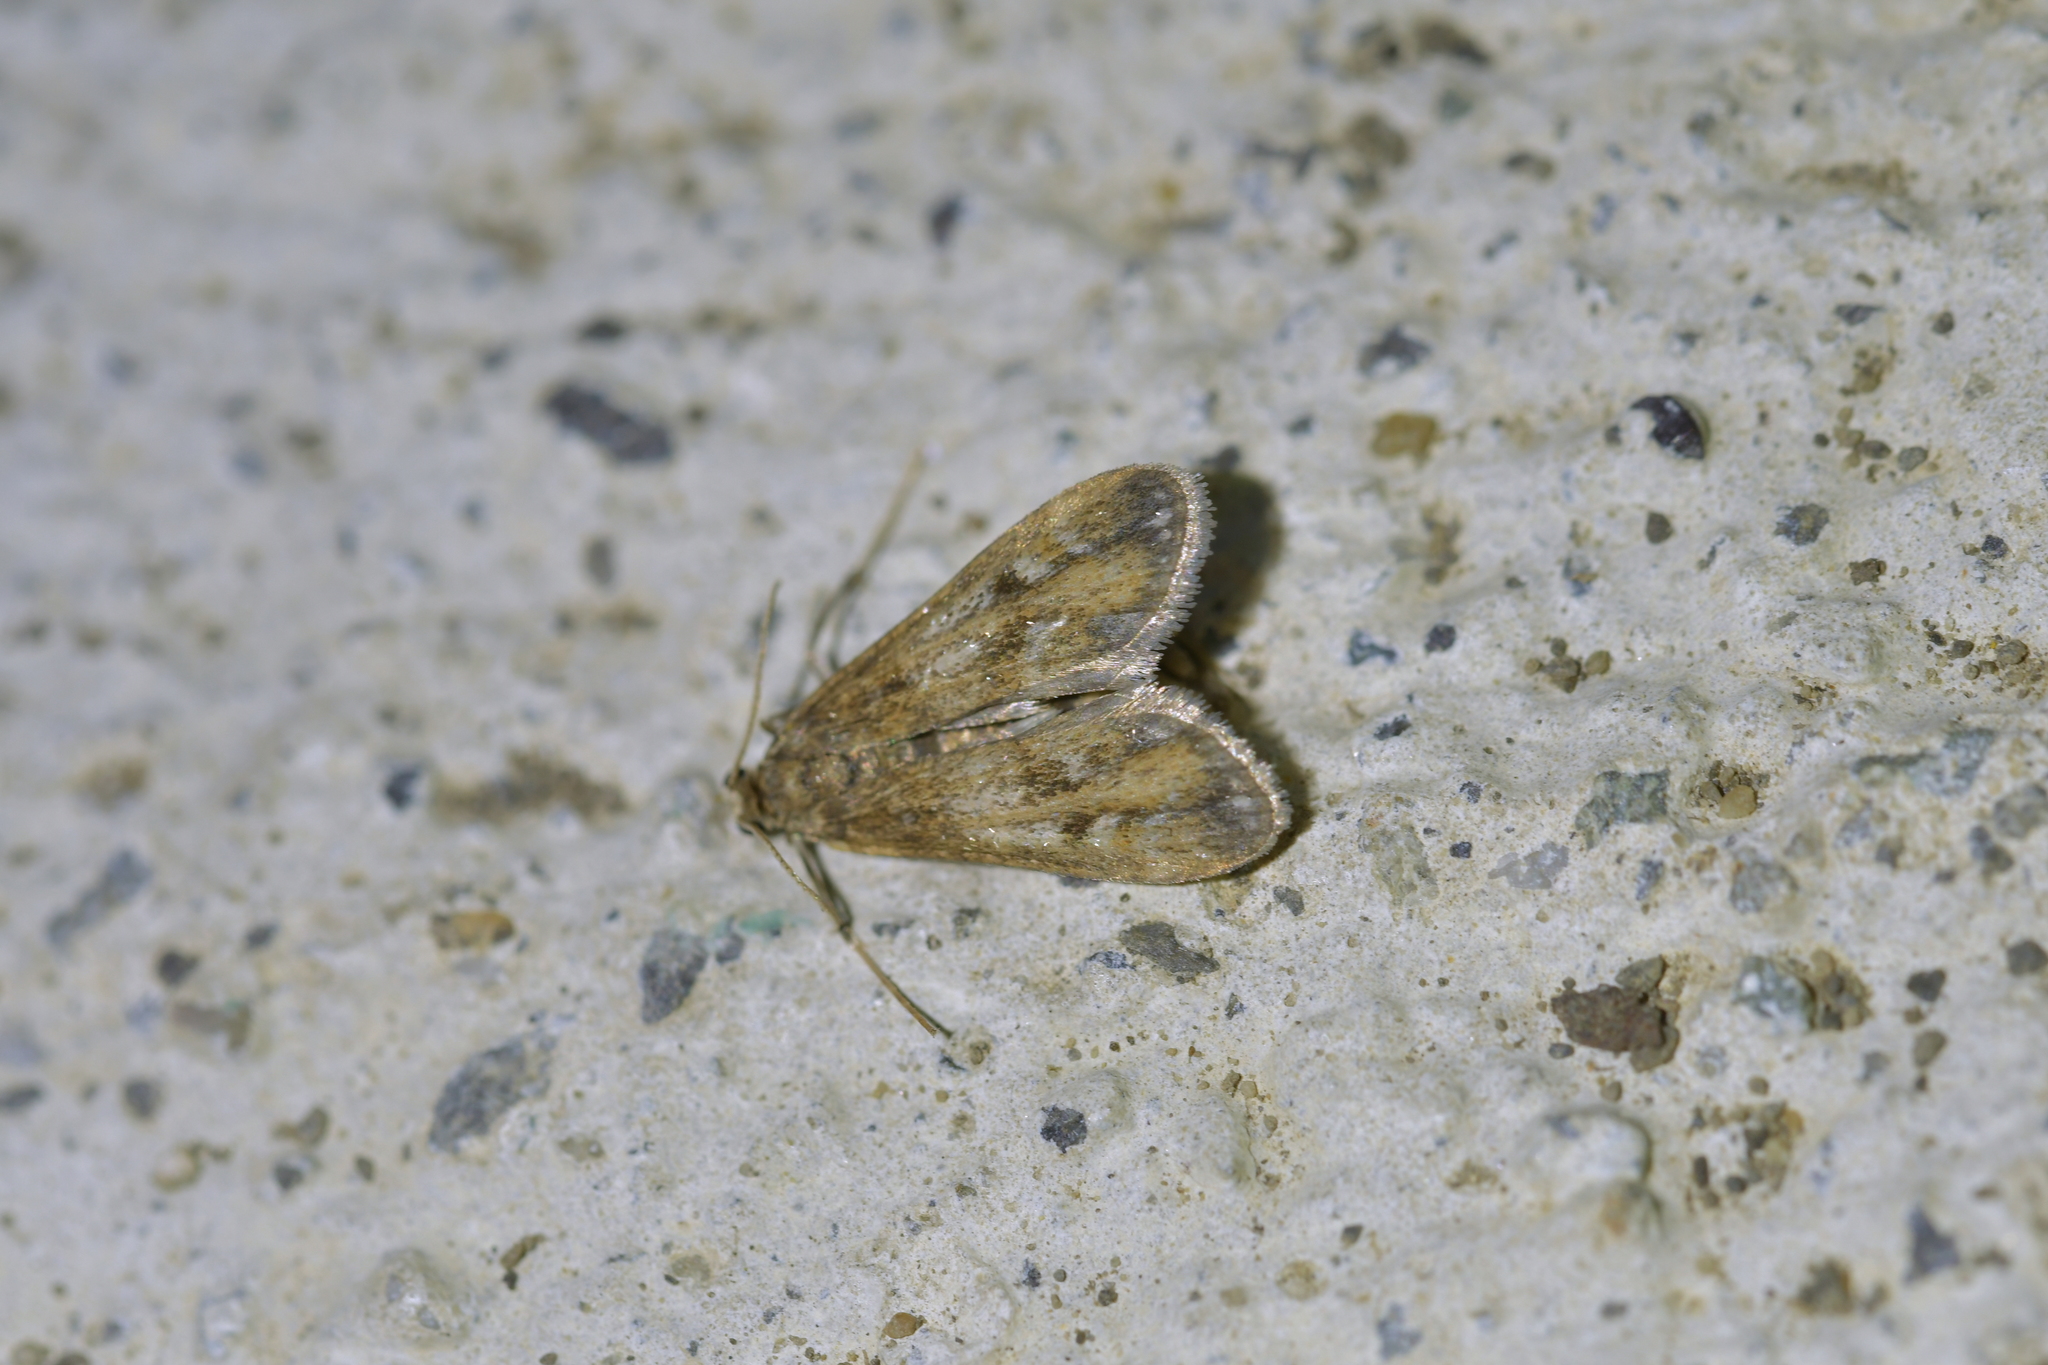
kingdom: Animalia
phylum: Arthropoda
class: Insecta
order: Lepidoptera
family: Crambidae
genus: Hygraula
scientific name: Hygraula nitens
